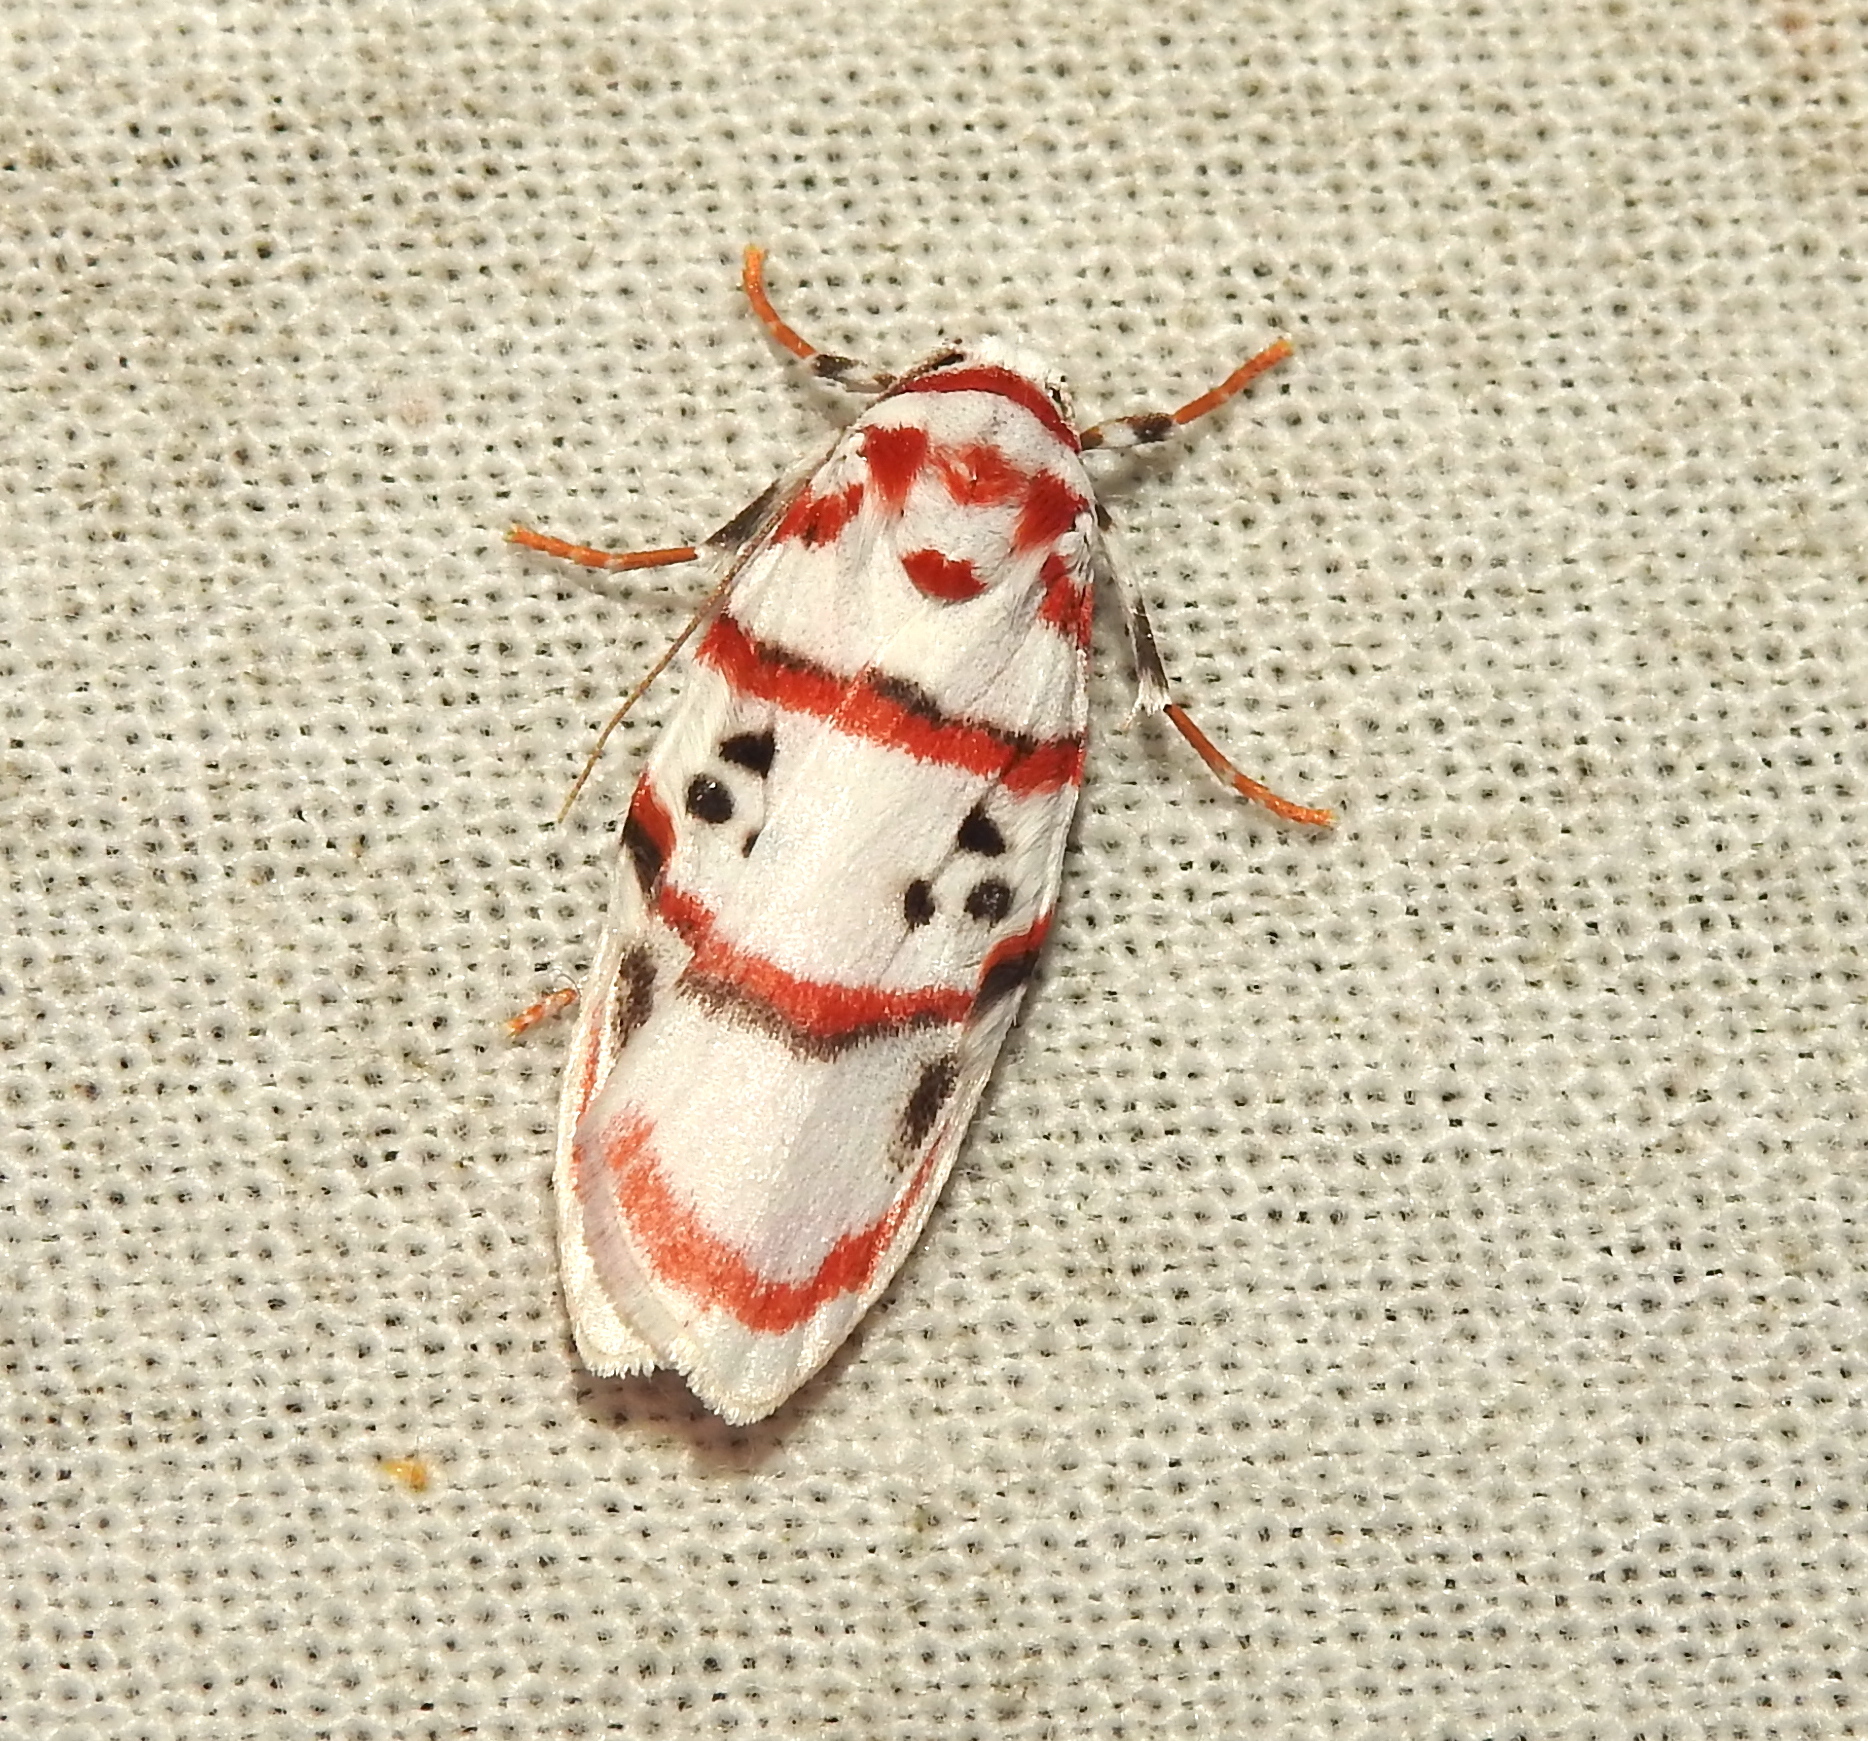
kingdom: Animalia
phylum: Arthropoda
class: Insecta
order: Lepidoptera
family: Erebidae
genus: Cyana
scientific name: Cyana peregrina
